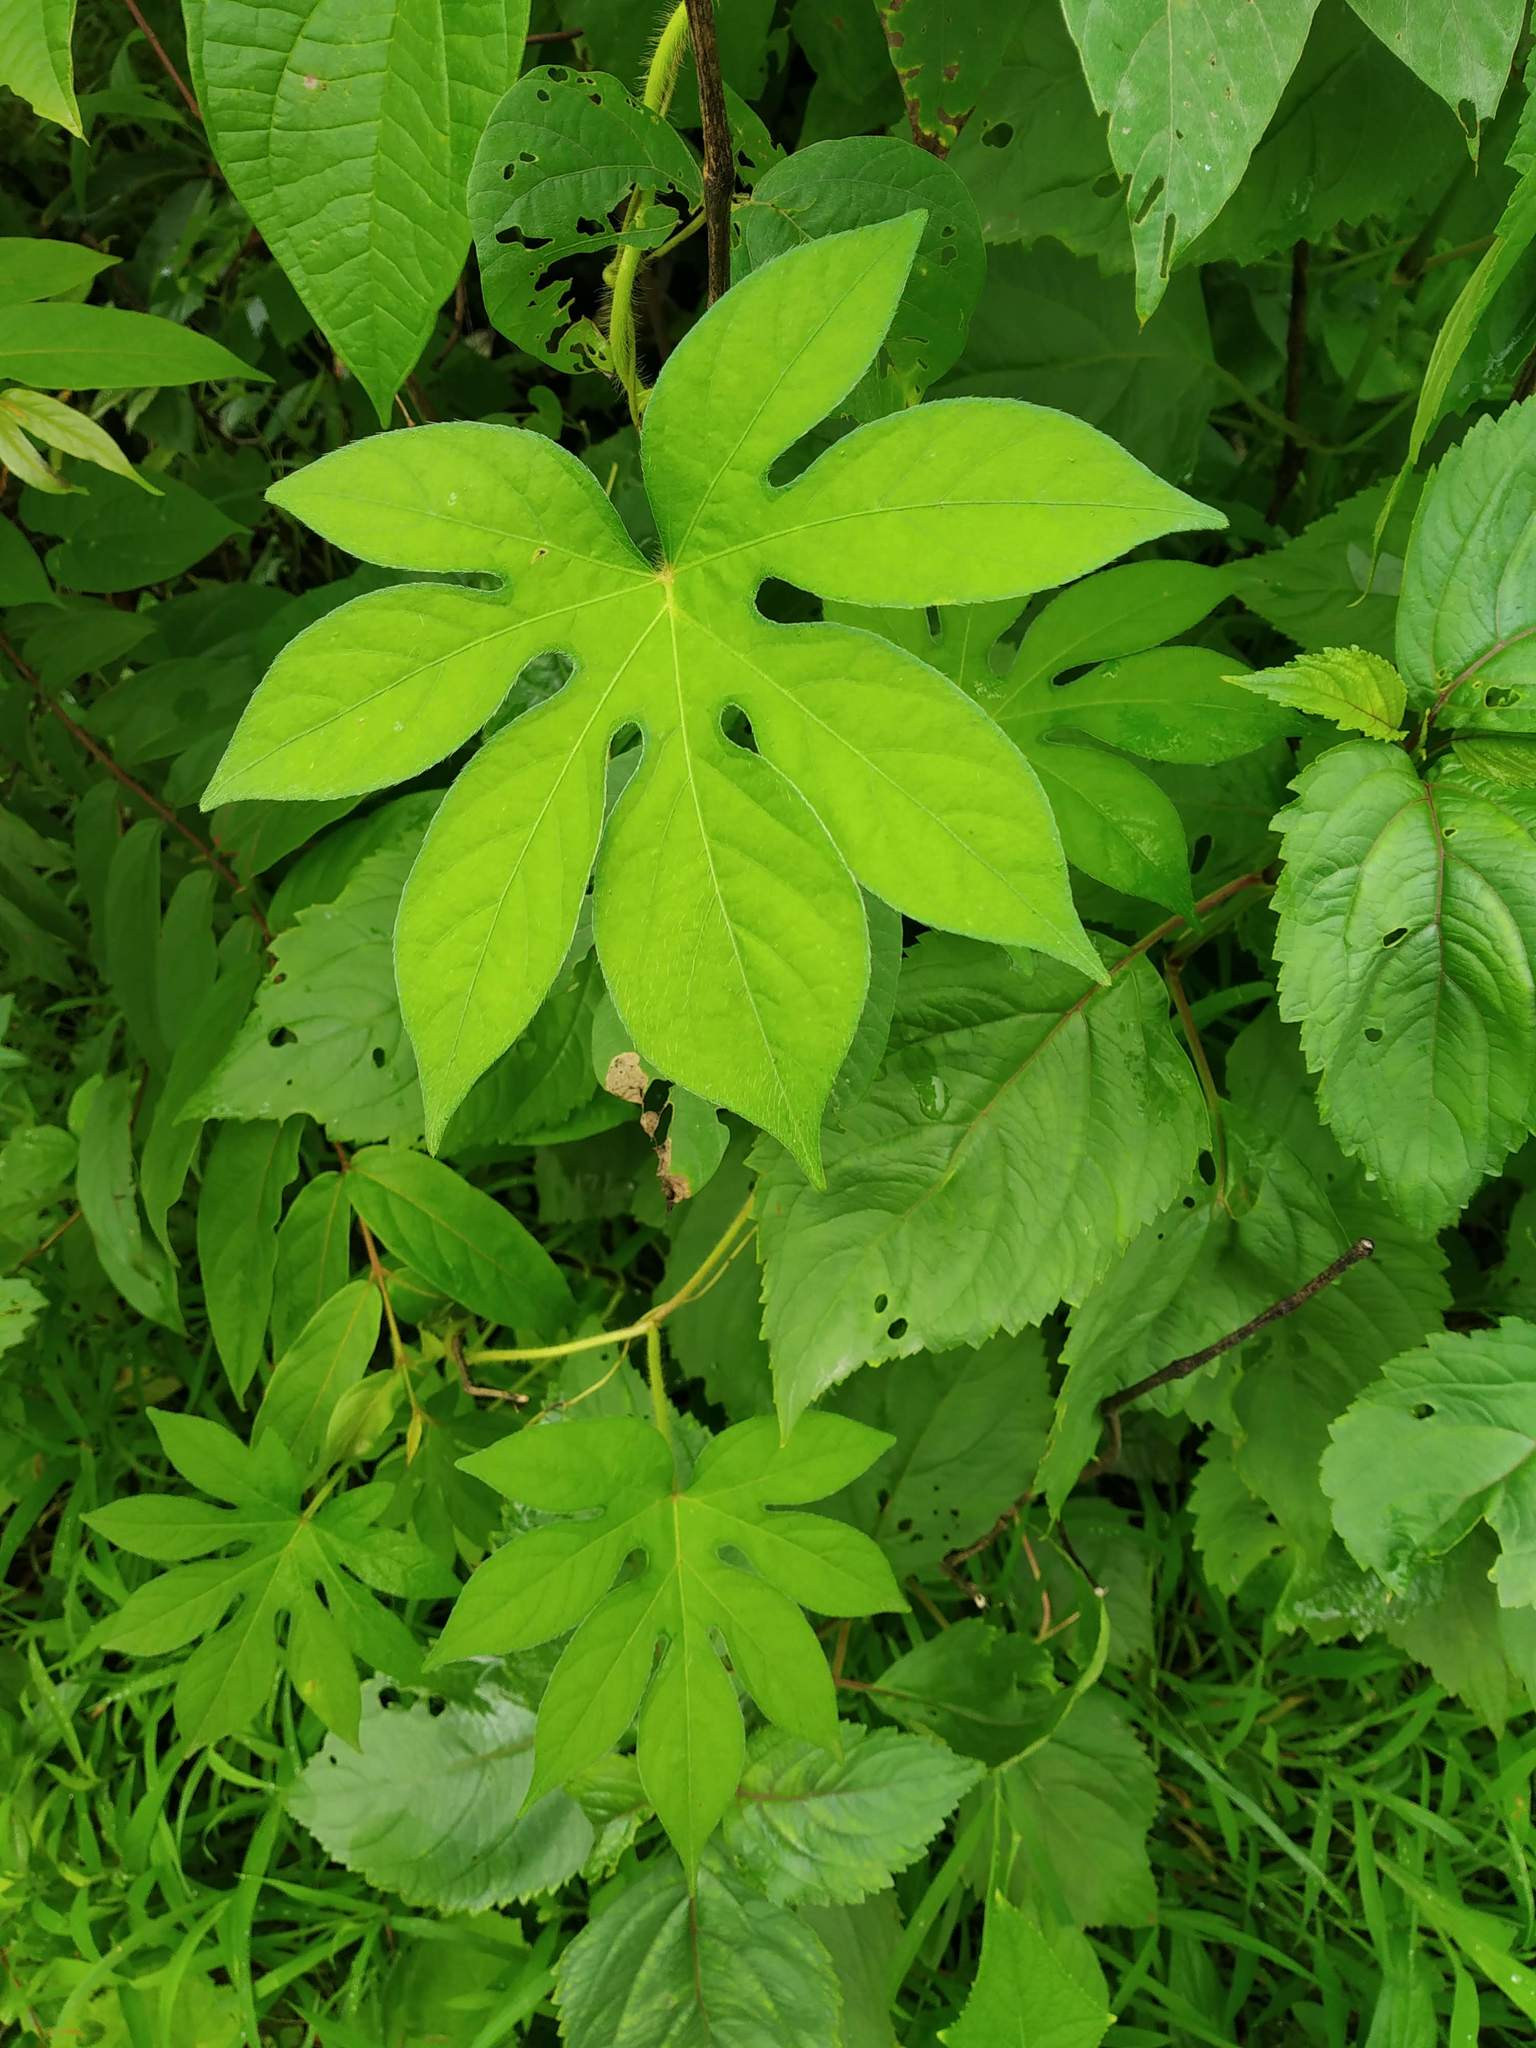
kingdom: Plantae
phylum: Tracheophyta
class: Magnoliopsida
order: Solanales
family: Convolvulaceae
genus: Ipomoea
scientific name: Ipomoea pes-tigridis
